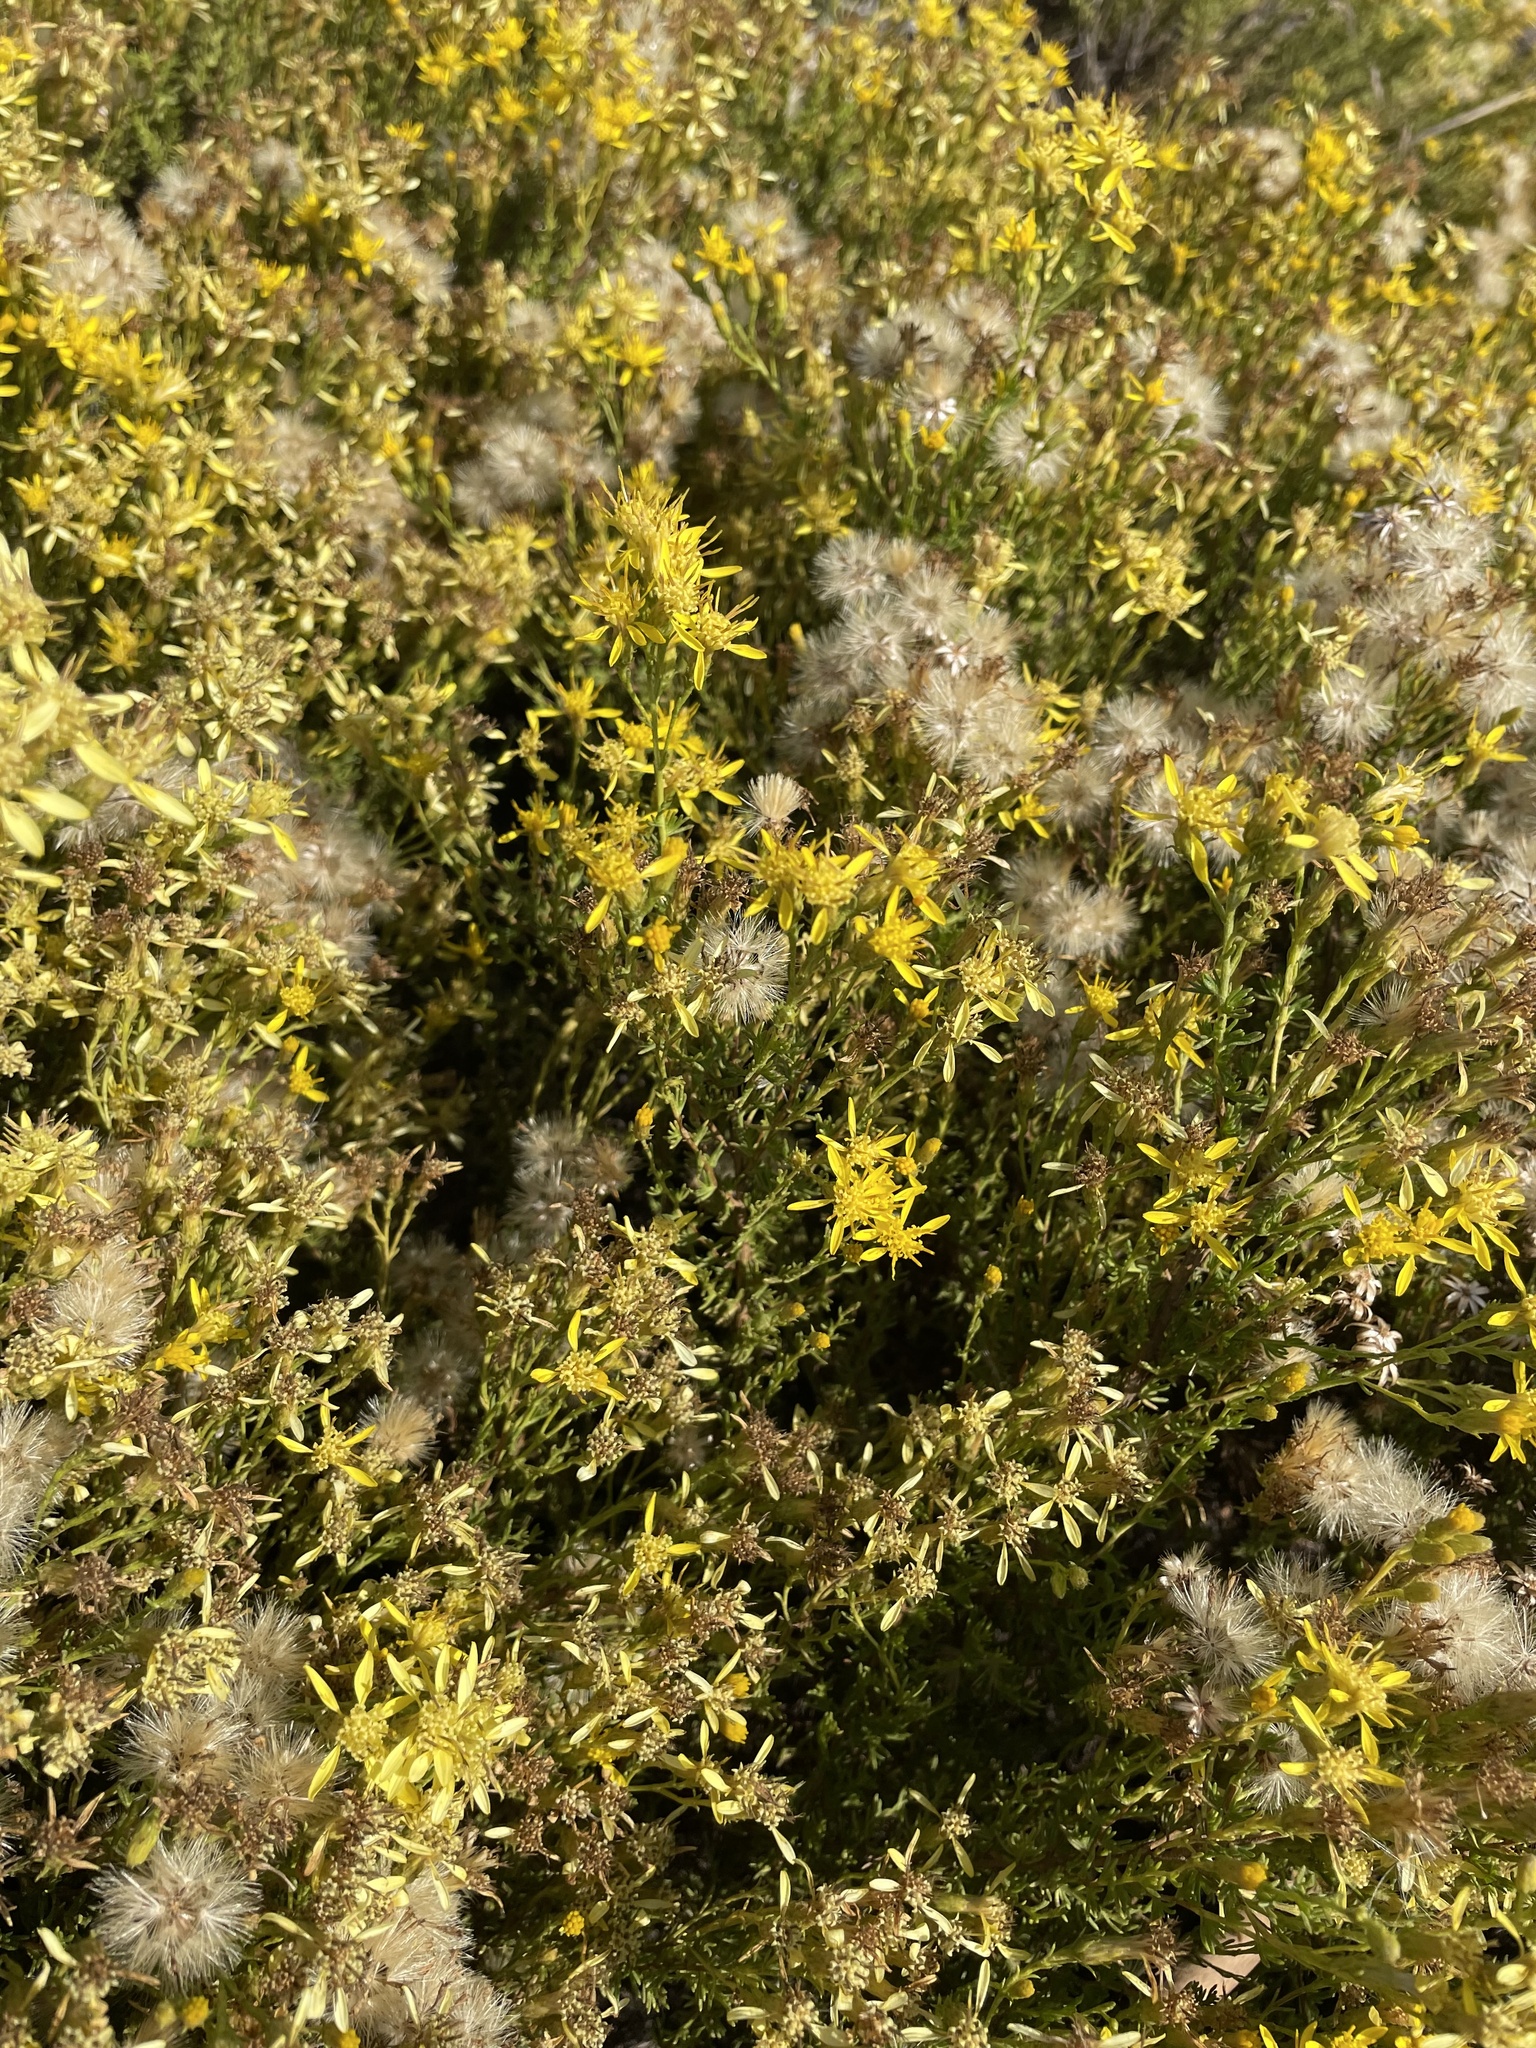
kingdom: Plantae
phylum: Tracheophyta
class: Magnoliopsida
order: Asterales
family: Asteraceae
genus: Ericameria
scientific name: Ericameria ericoides
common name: California goldenbush
